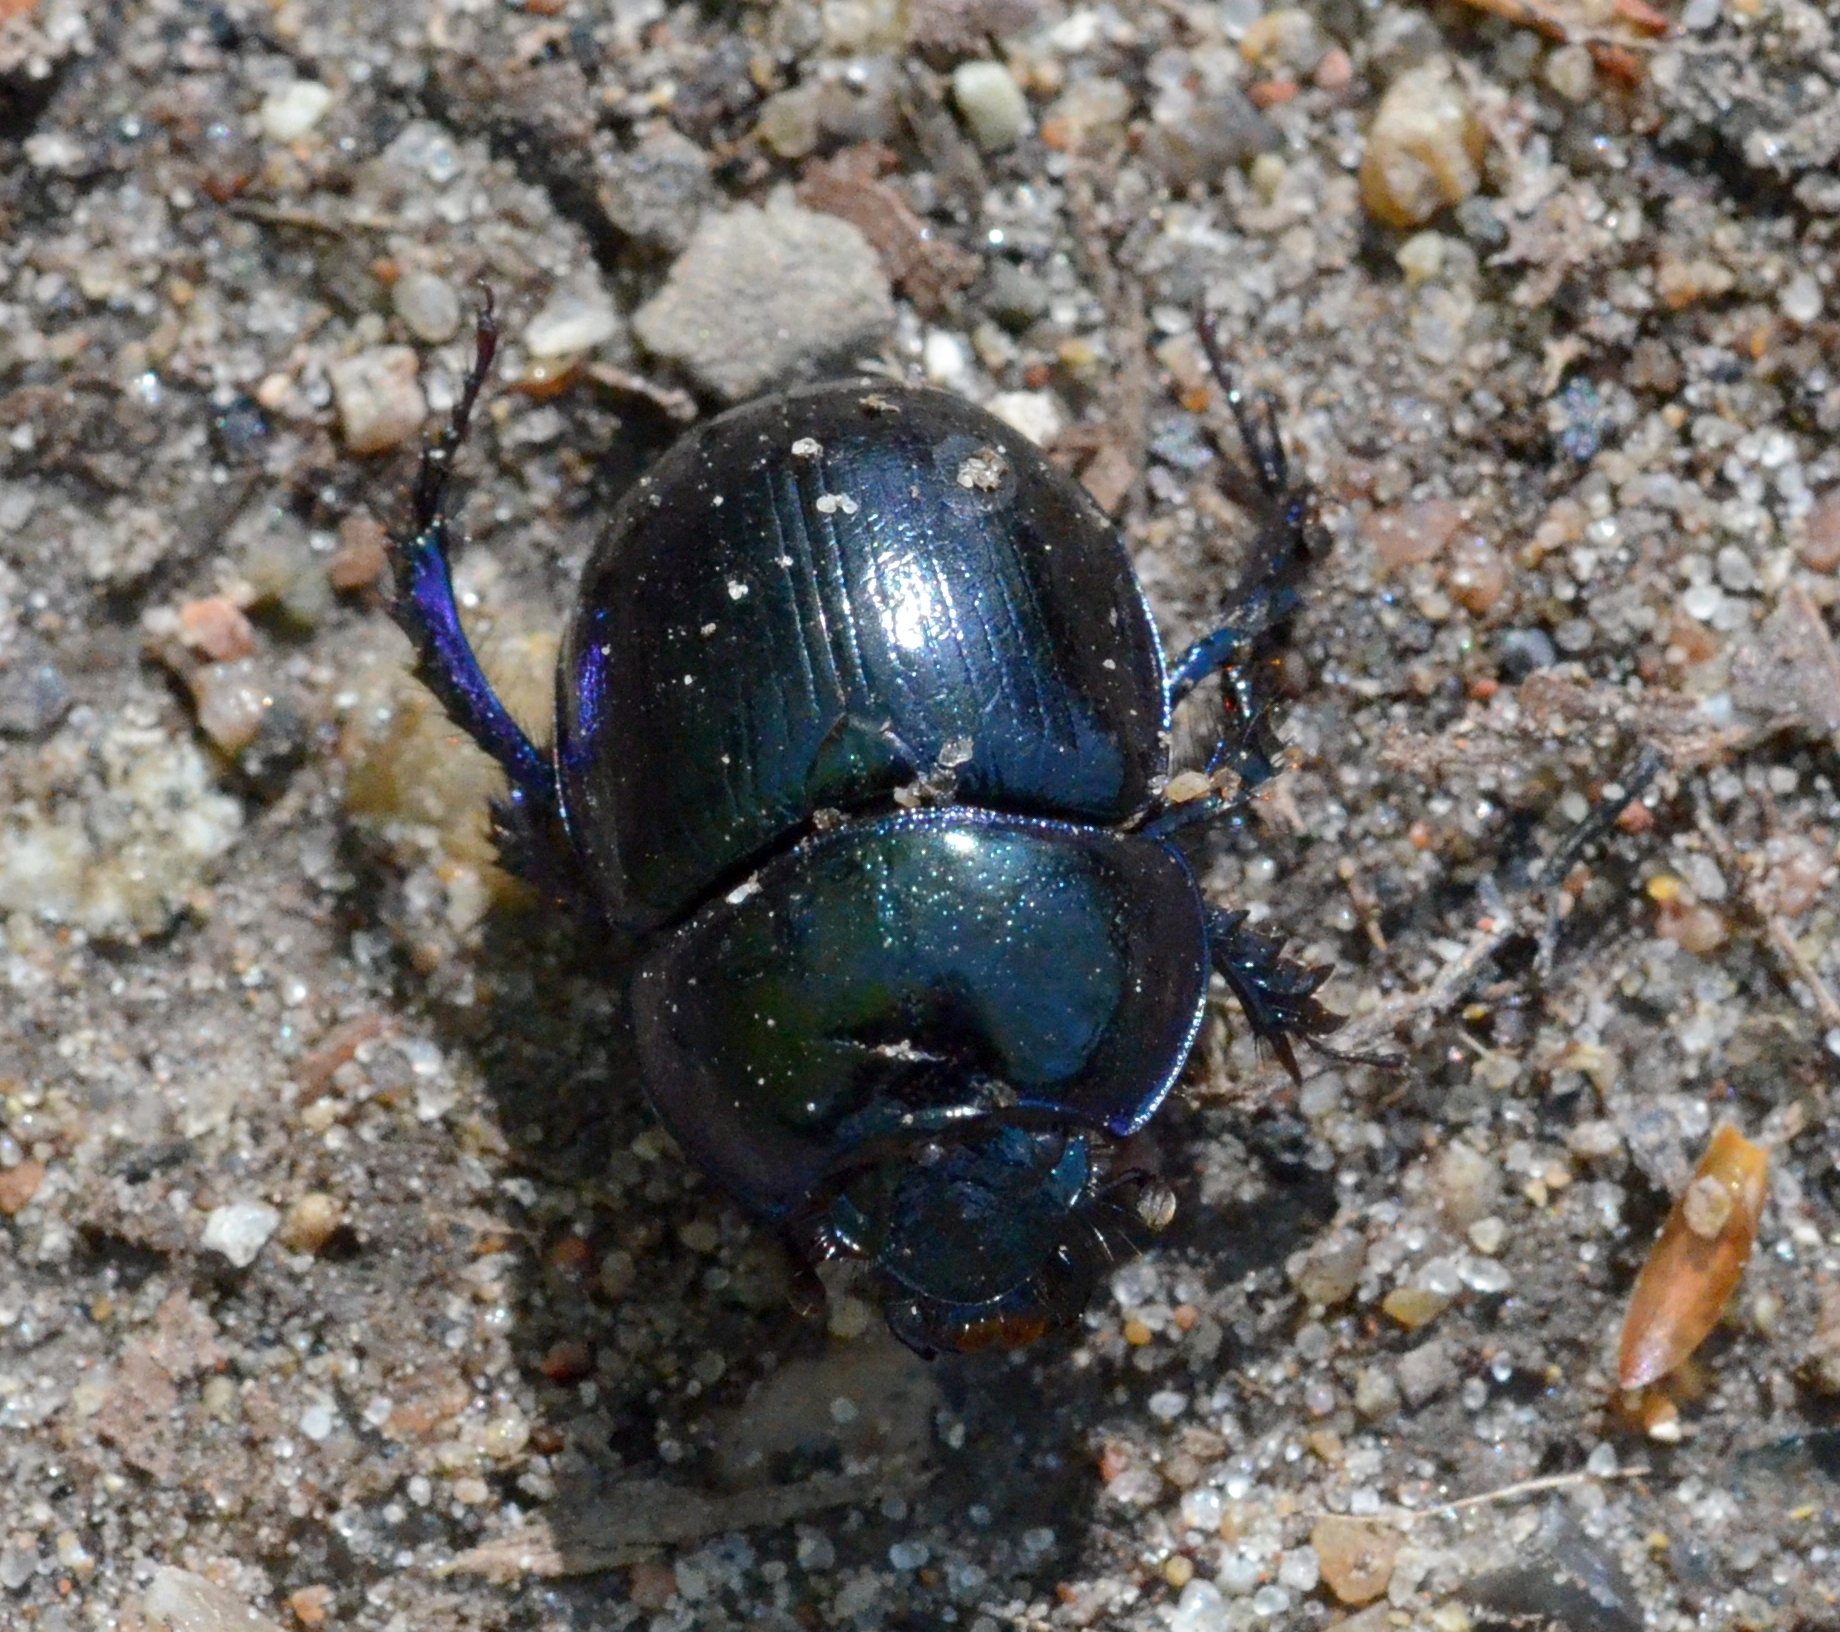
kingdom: Animalia
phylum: Arthropoda
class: Insecta
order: Coleoptera
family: Geotrupidae
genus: Anoplotrupes
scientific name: Anoplotrupes stercorosus
